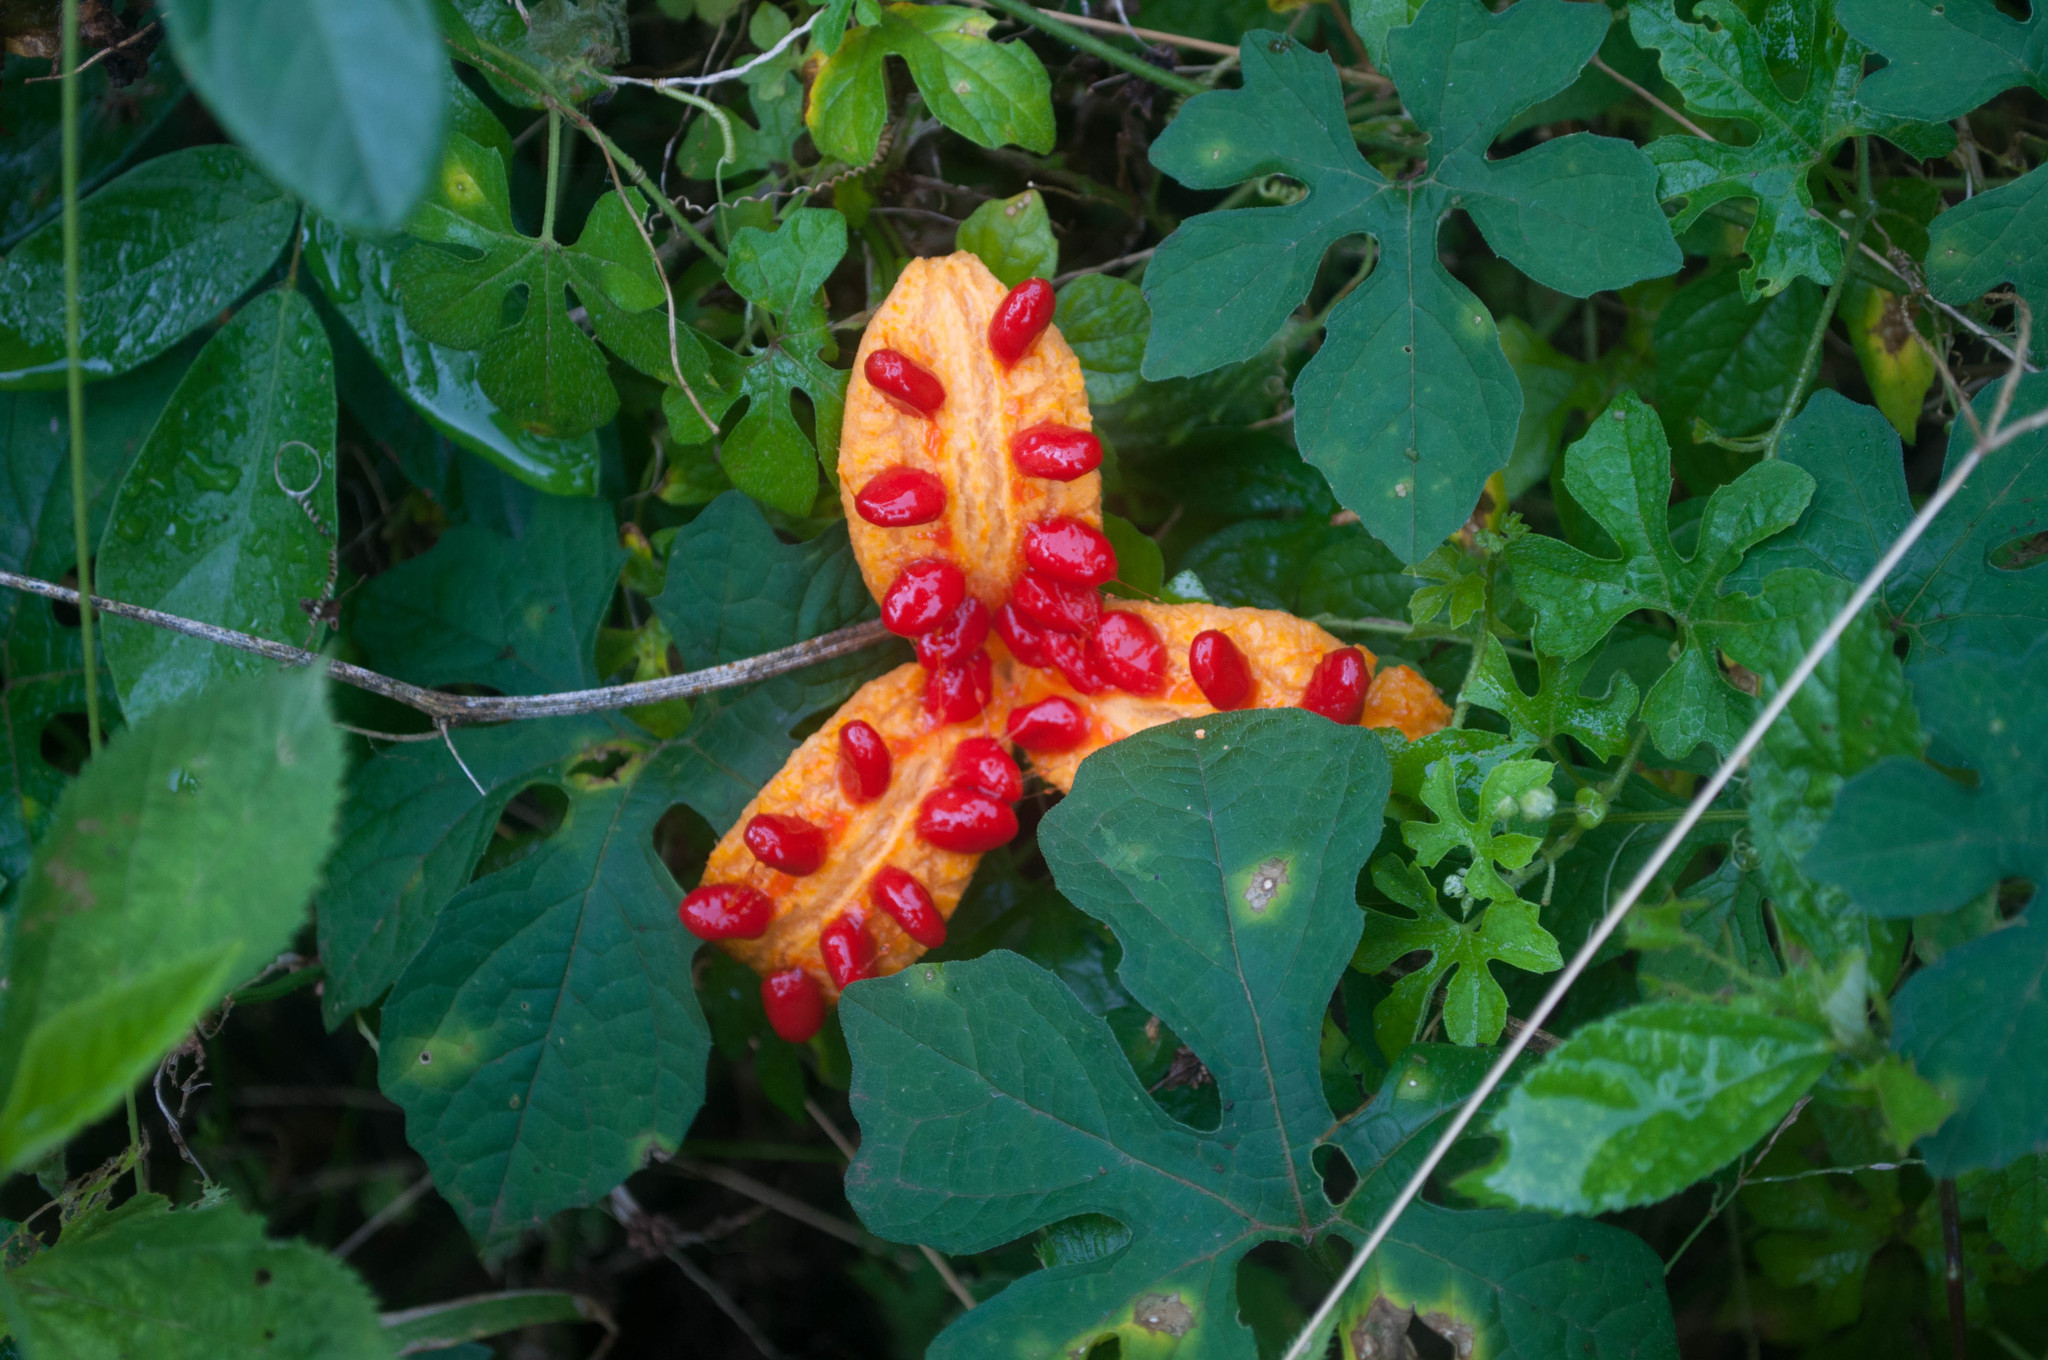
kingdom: Plantae
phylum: Tracheophyta
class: Magnoliopsida
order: Cucurbitales
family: Cucurbitaceae
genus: Momordica
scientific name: Momordica charantia
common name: Balsampear
